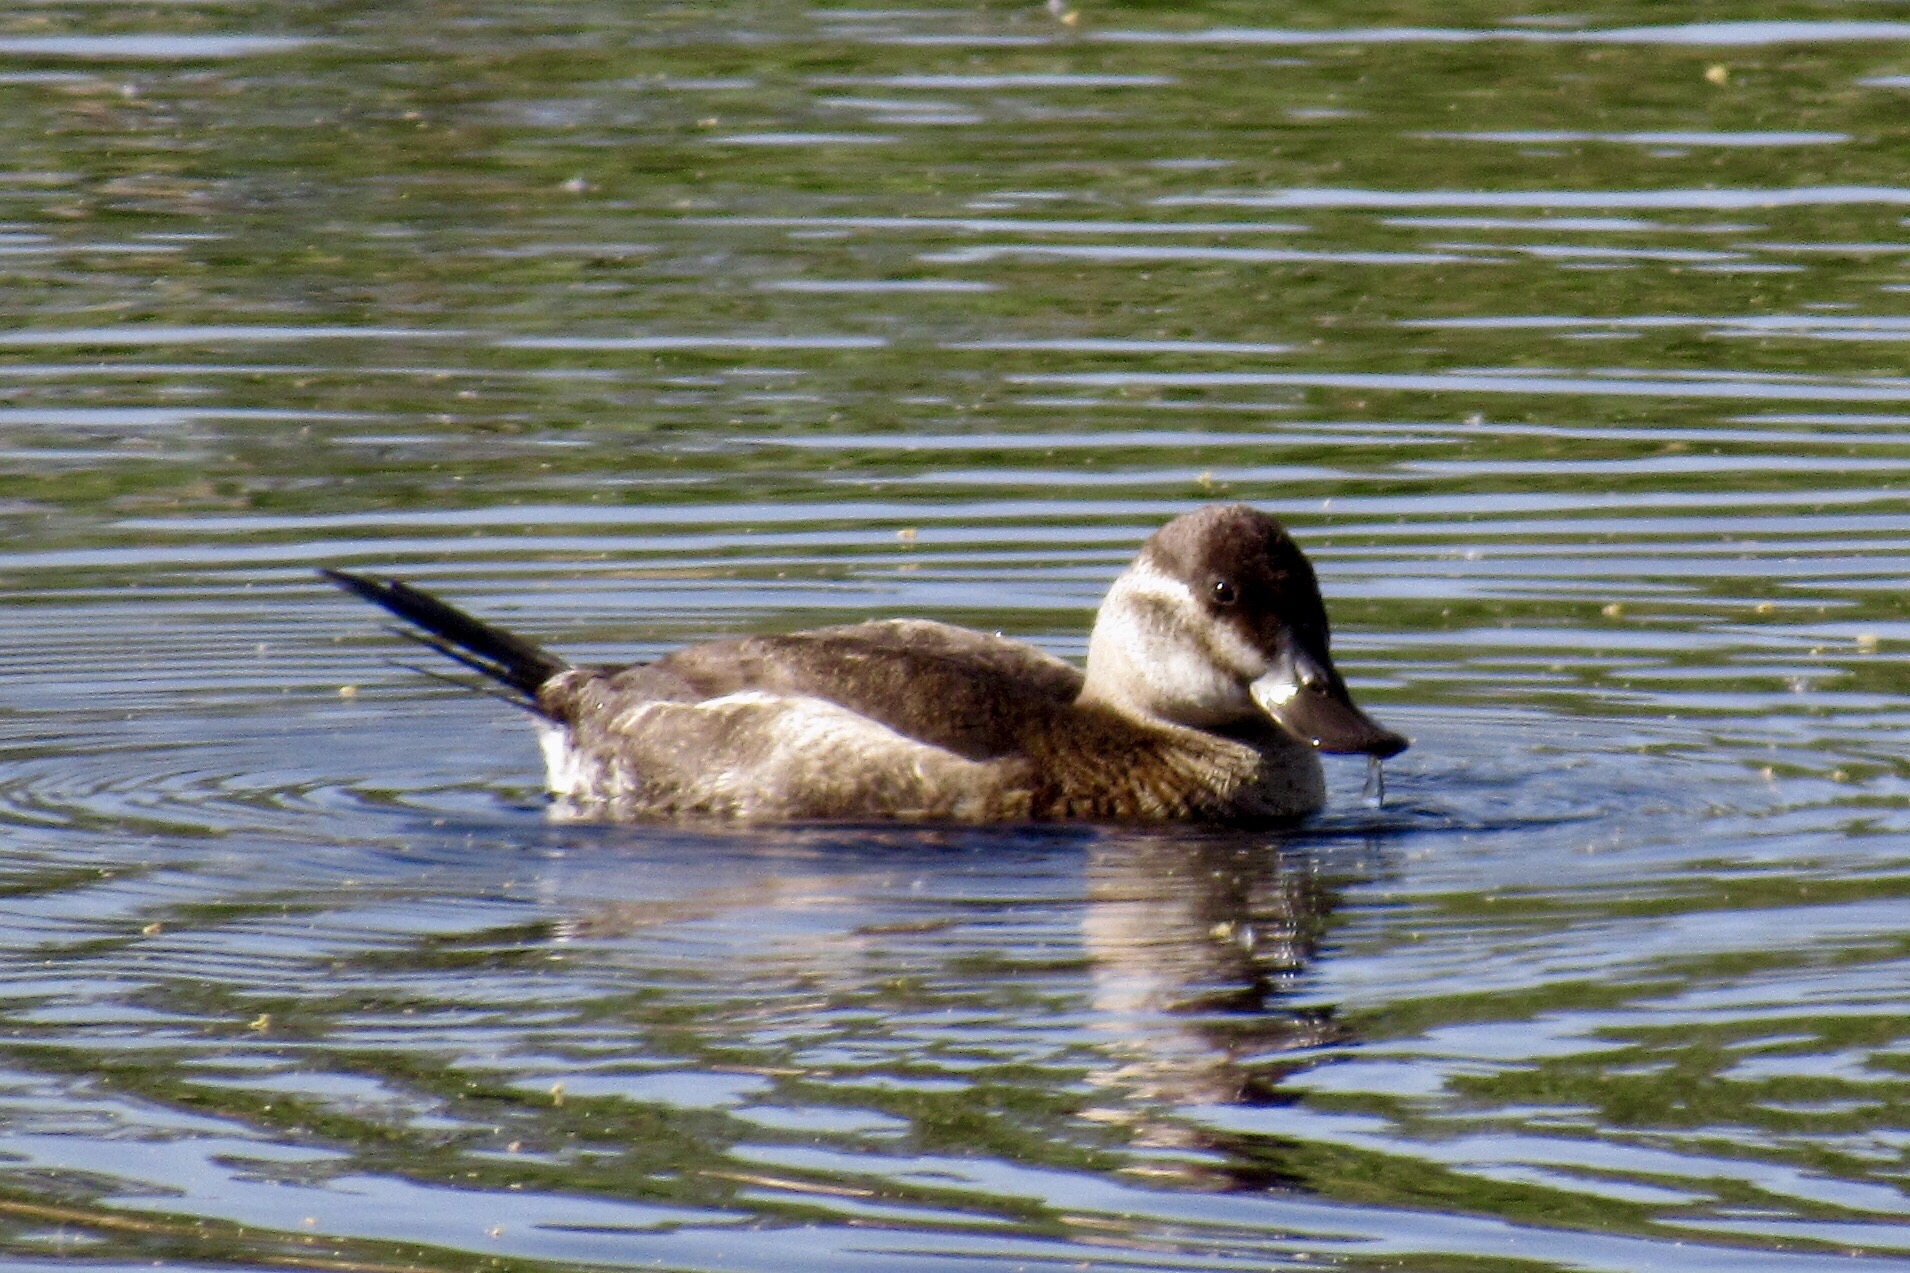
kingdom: Animalia
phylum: Chordata
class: Aves
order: Anseriformes
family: Anatidae
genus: Oxyura
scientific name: Oxyura jamaicensis
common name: Ruddy duck
